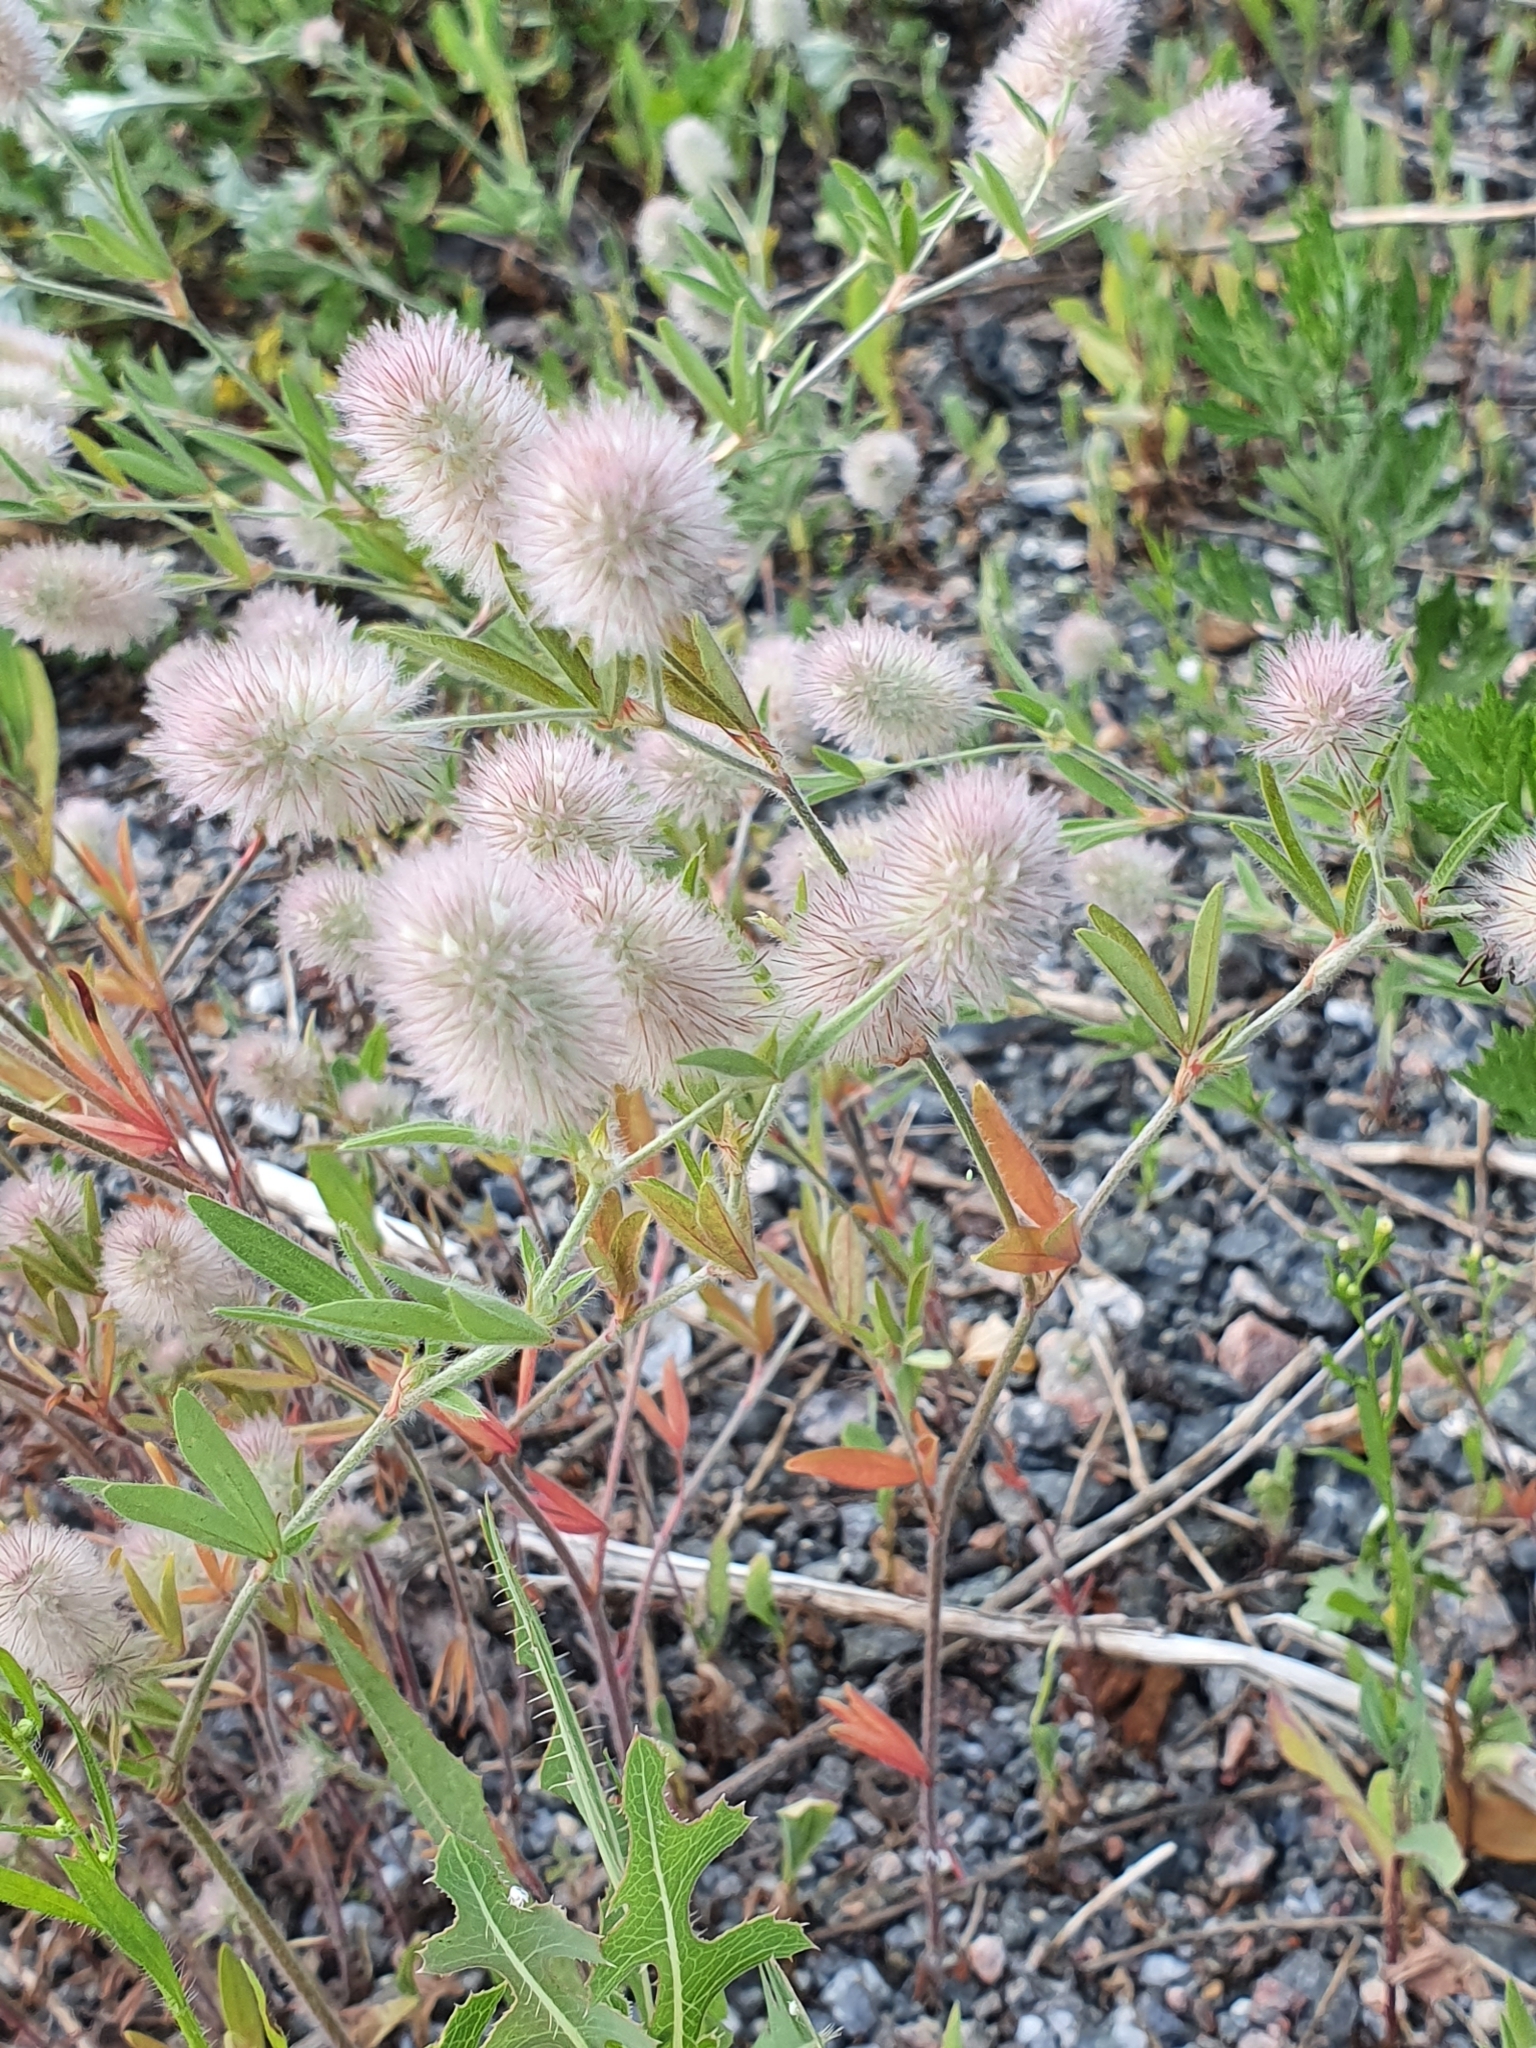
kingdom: Plantae
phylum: Tracheophyta
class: Magnoliopsida
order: Fabales
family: Fabaceae
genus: Trifolium
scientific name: Trifolium arvense
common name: Hare's-foot clover
